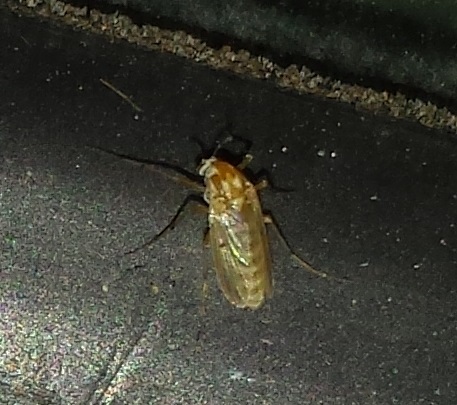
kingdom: Animalia
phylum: Arthropoda
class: Insecta
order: Diptera
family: Chironomidae
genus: Procladius
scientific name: Procladius bellus
